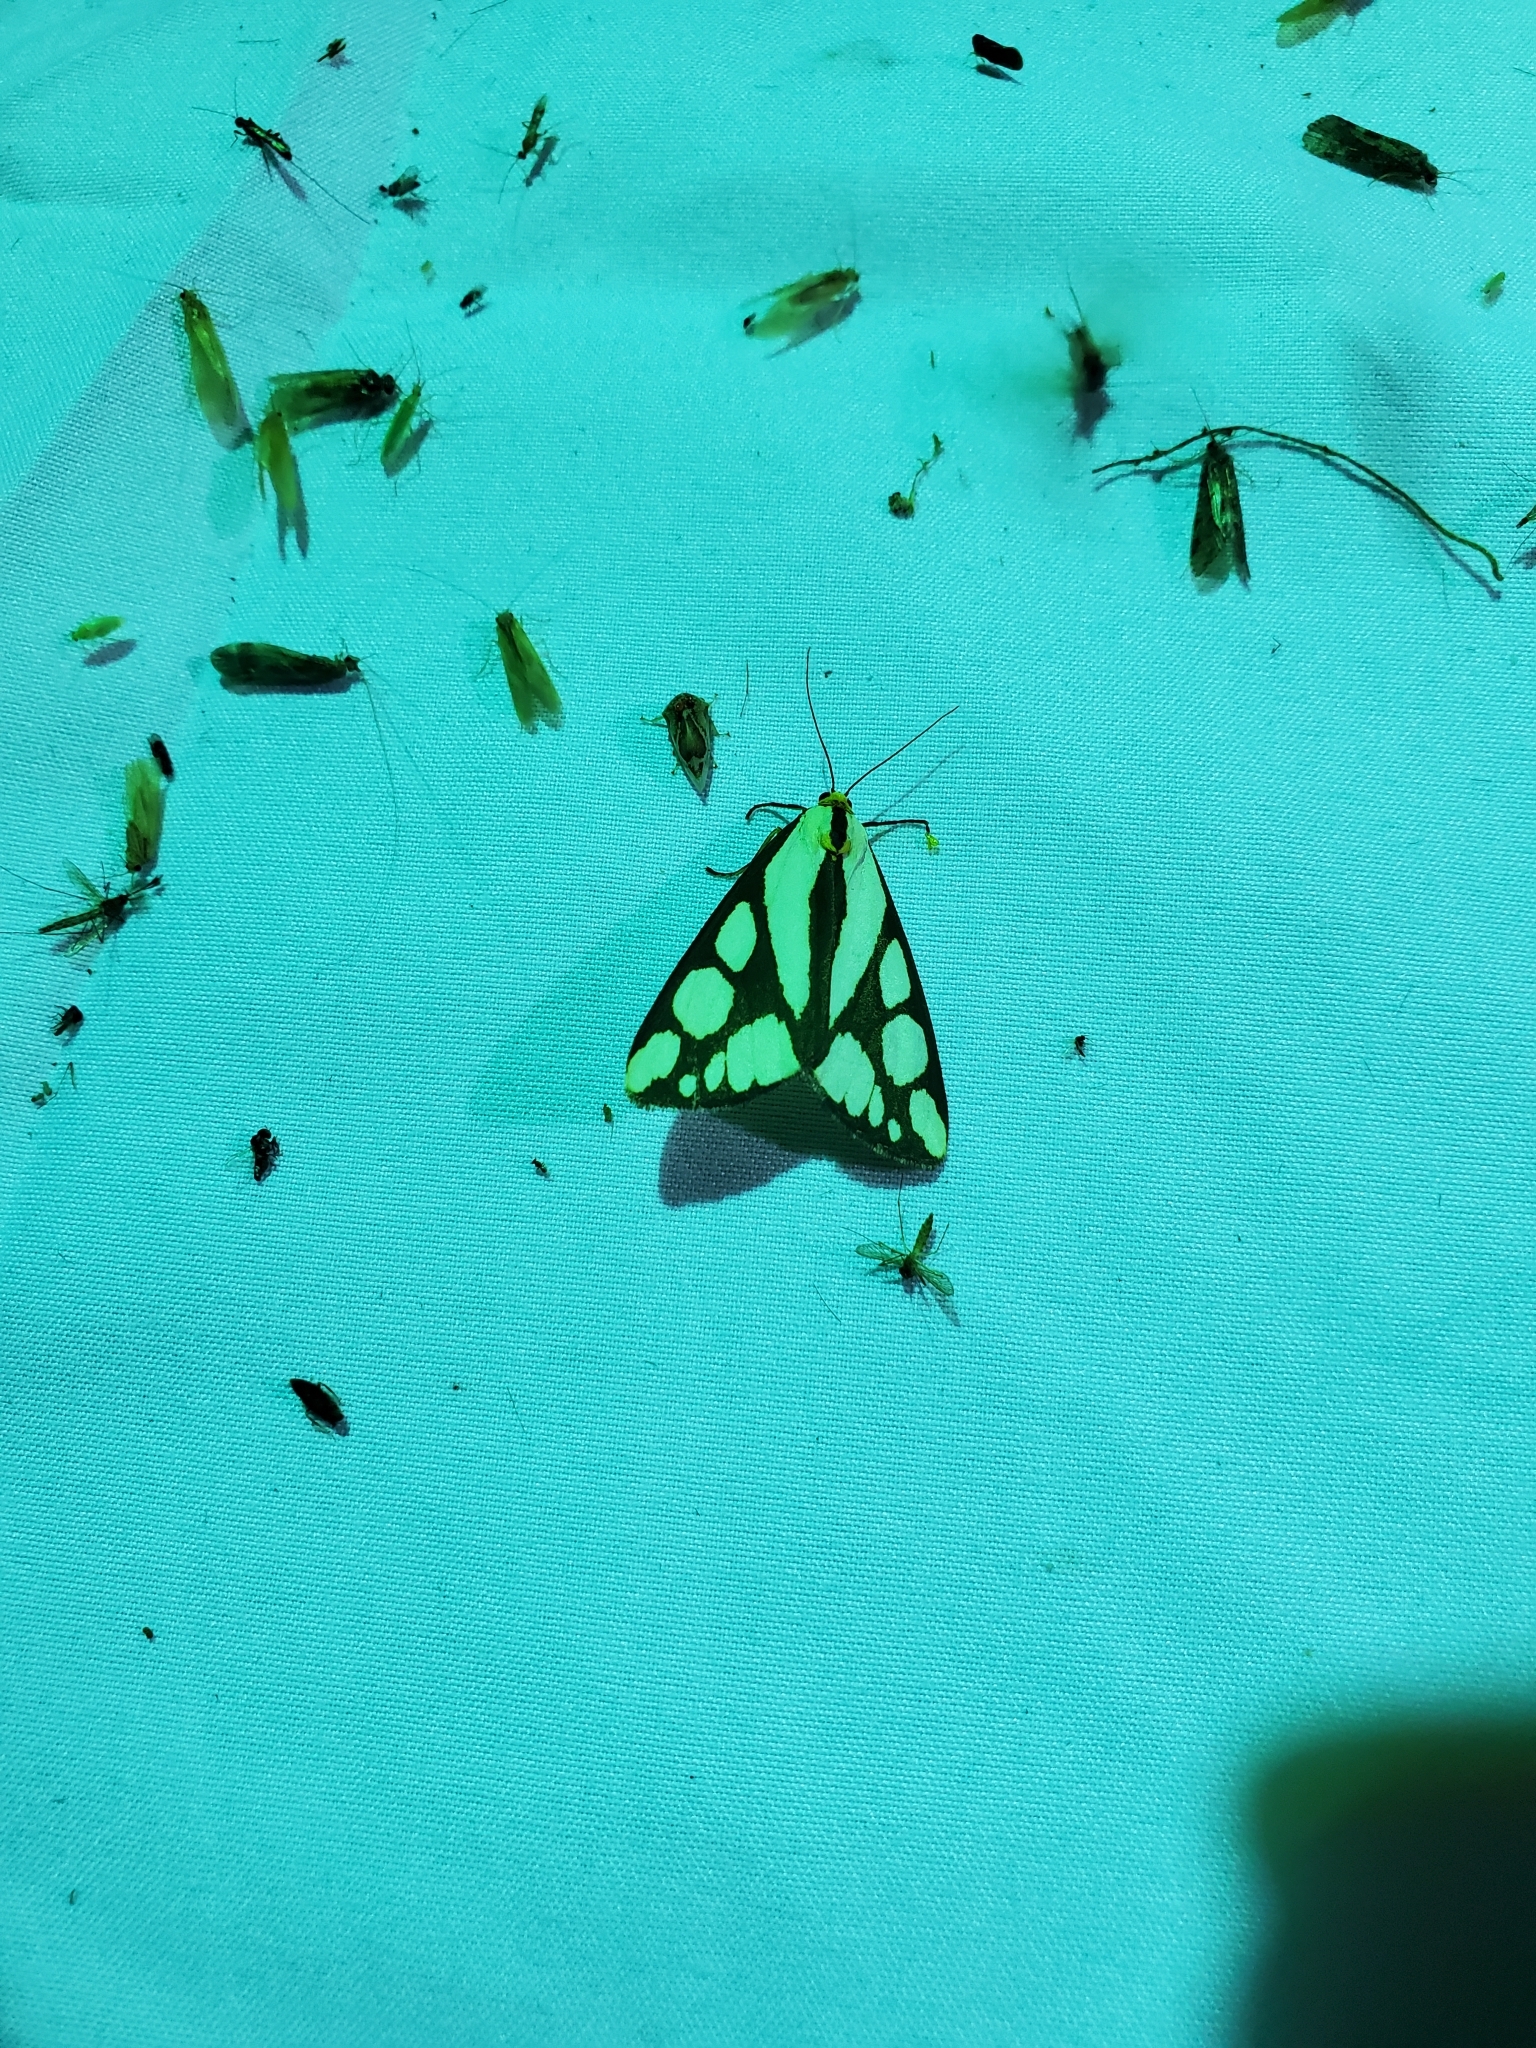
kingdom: Animalia
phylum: Arthropoda
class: Insecta
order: Lepidoptera
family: Erebidae
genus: Haploa
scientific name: Haploa reversa
